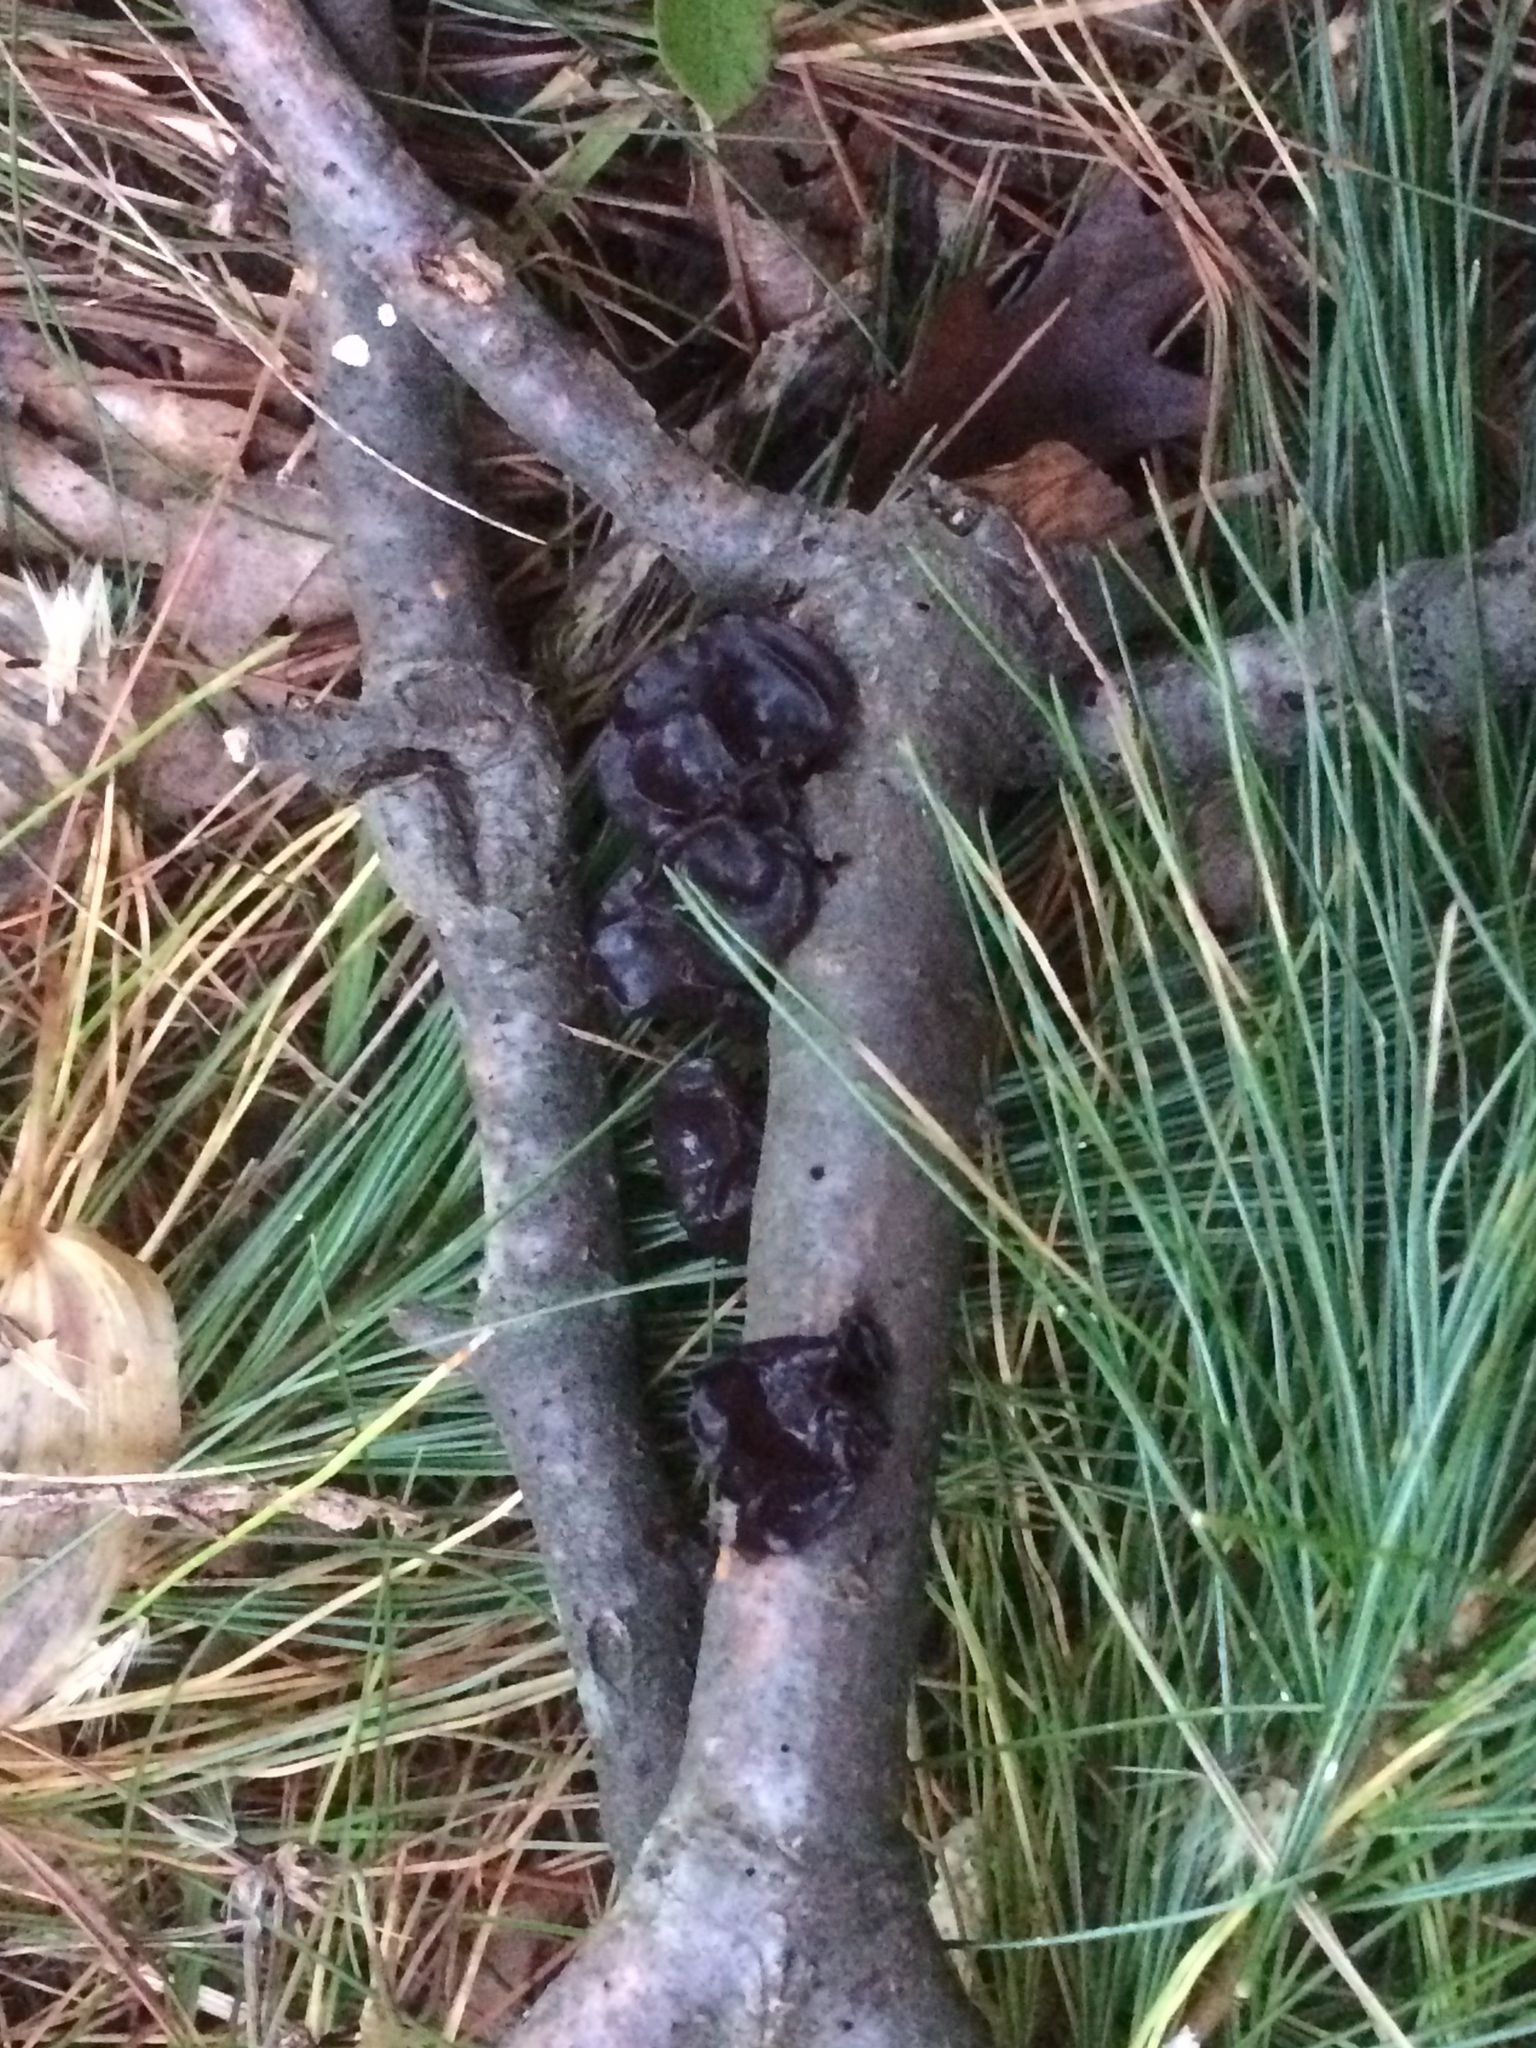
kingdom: Fungi
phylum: Basidiomycota
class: Agaricomycetes
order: Auriculariales
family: Auriculariaceae
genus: Exidia
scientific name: Exidia glandulosa
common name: Witches' butter
